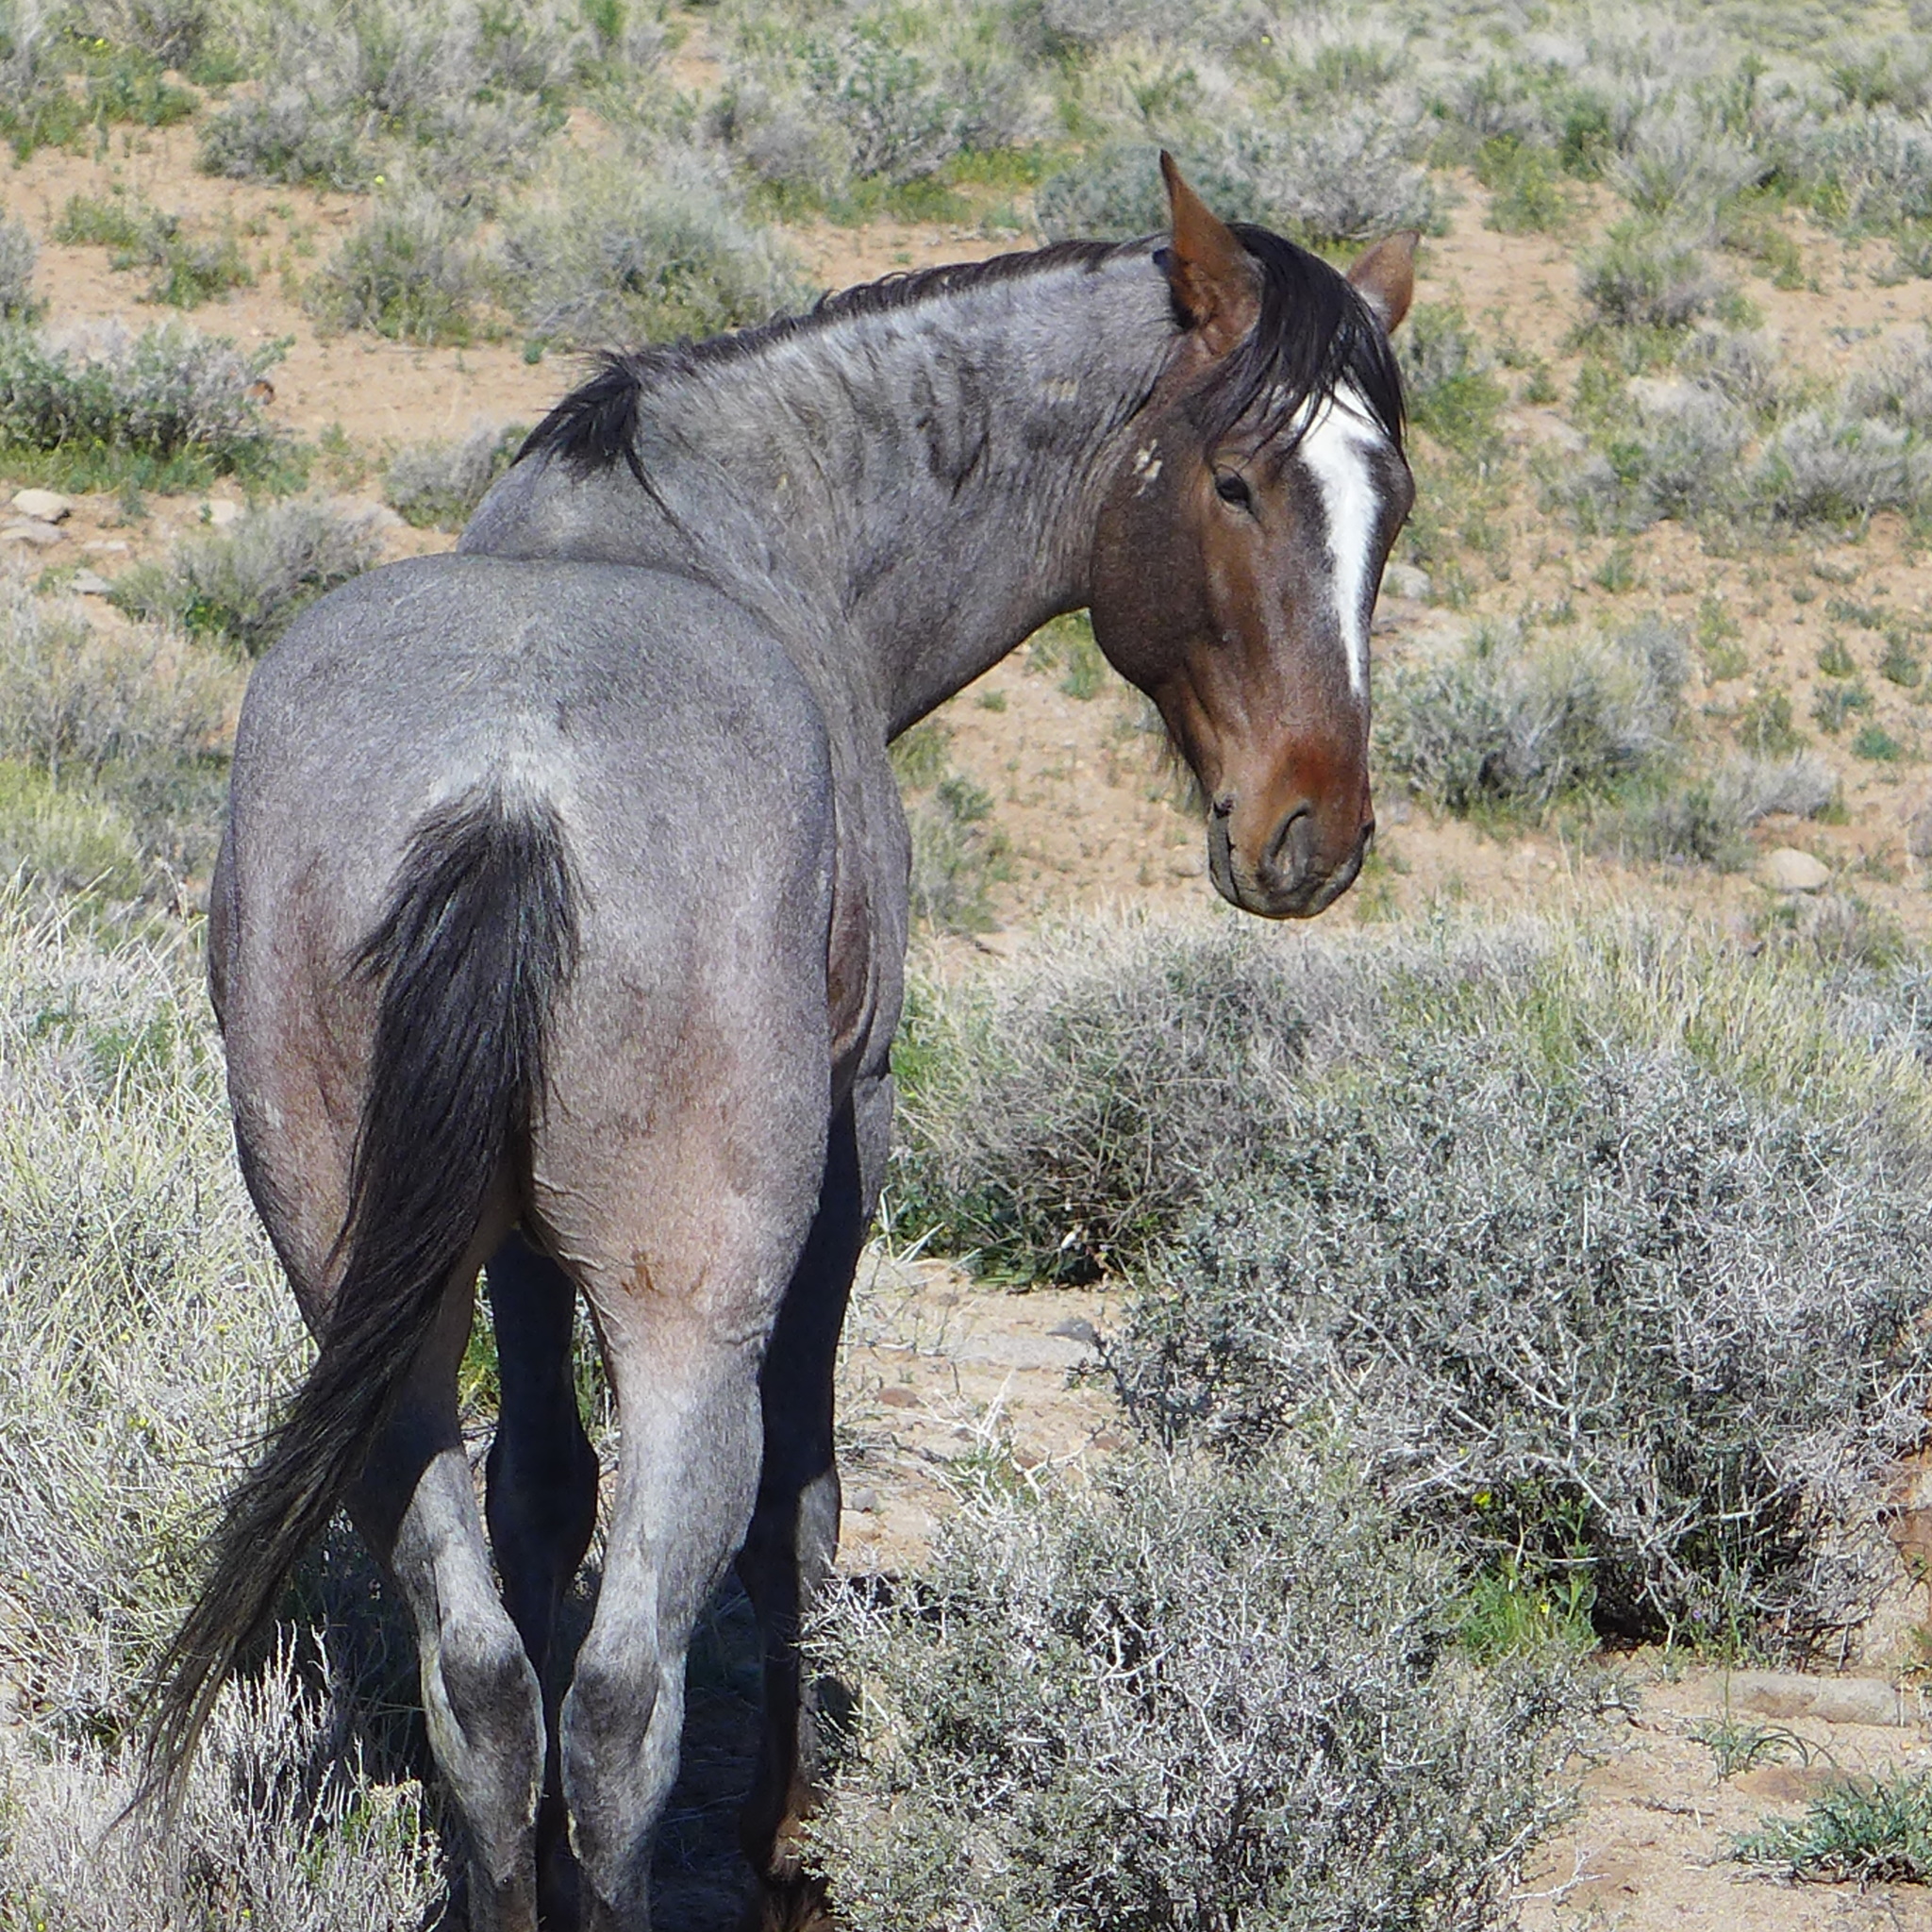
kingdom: Animalia
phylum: Chordata
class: Mammalia
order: Perissodactyla
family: Equidae
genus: Equus
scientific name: Equus caballus
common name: Horse
